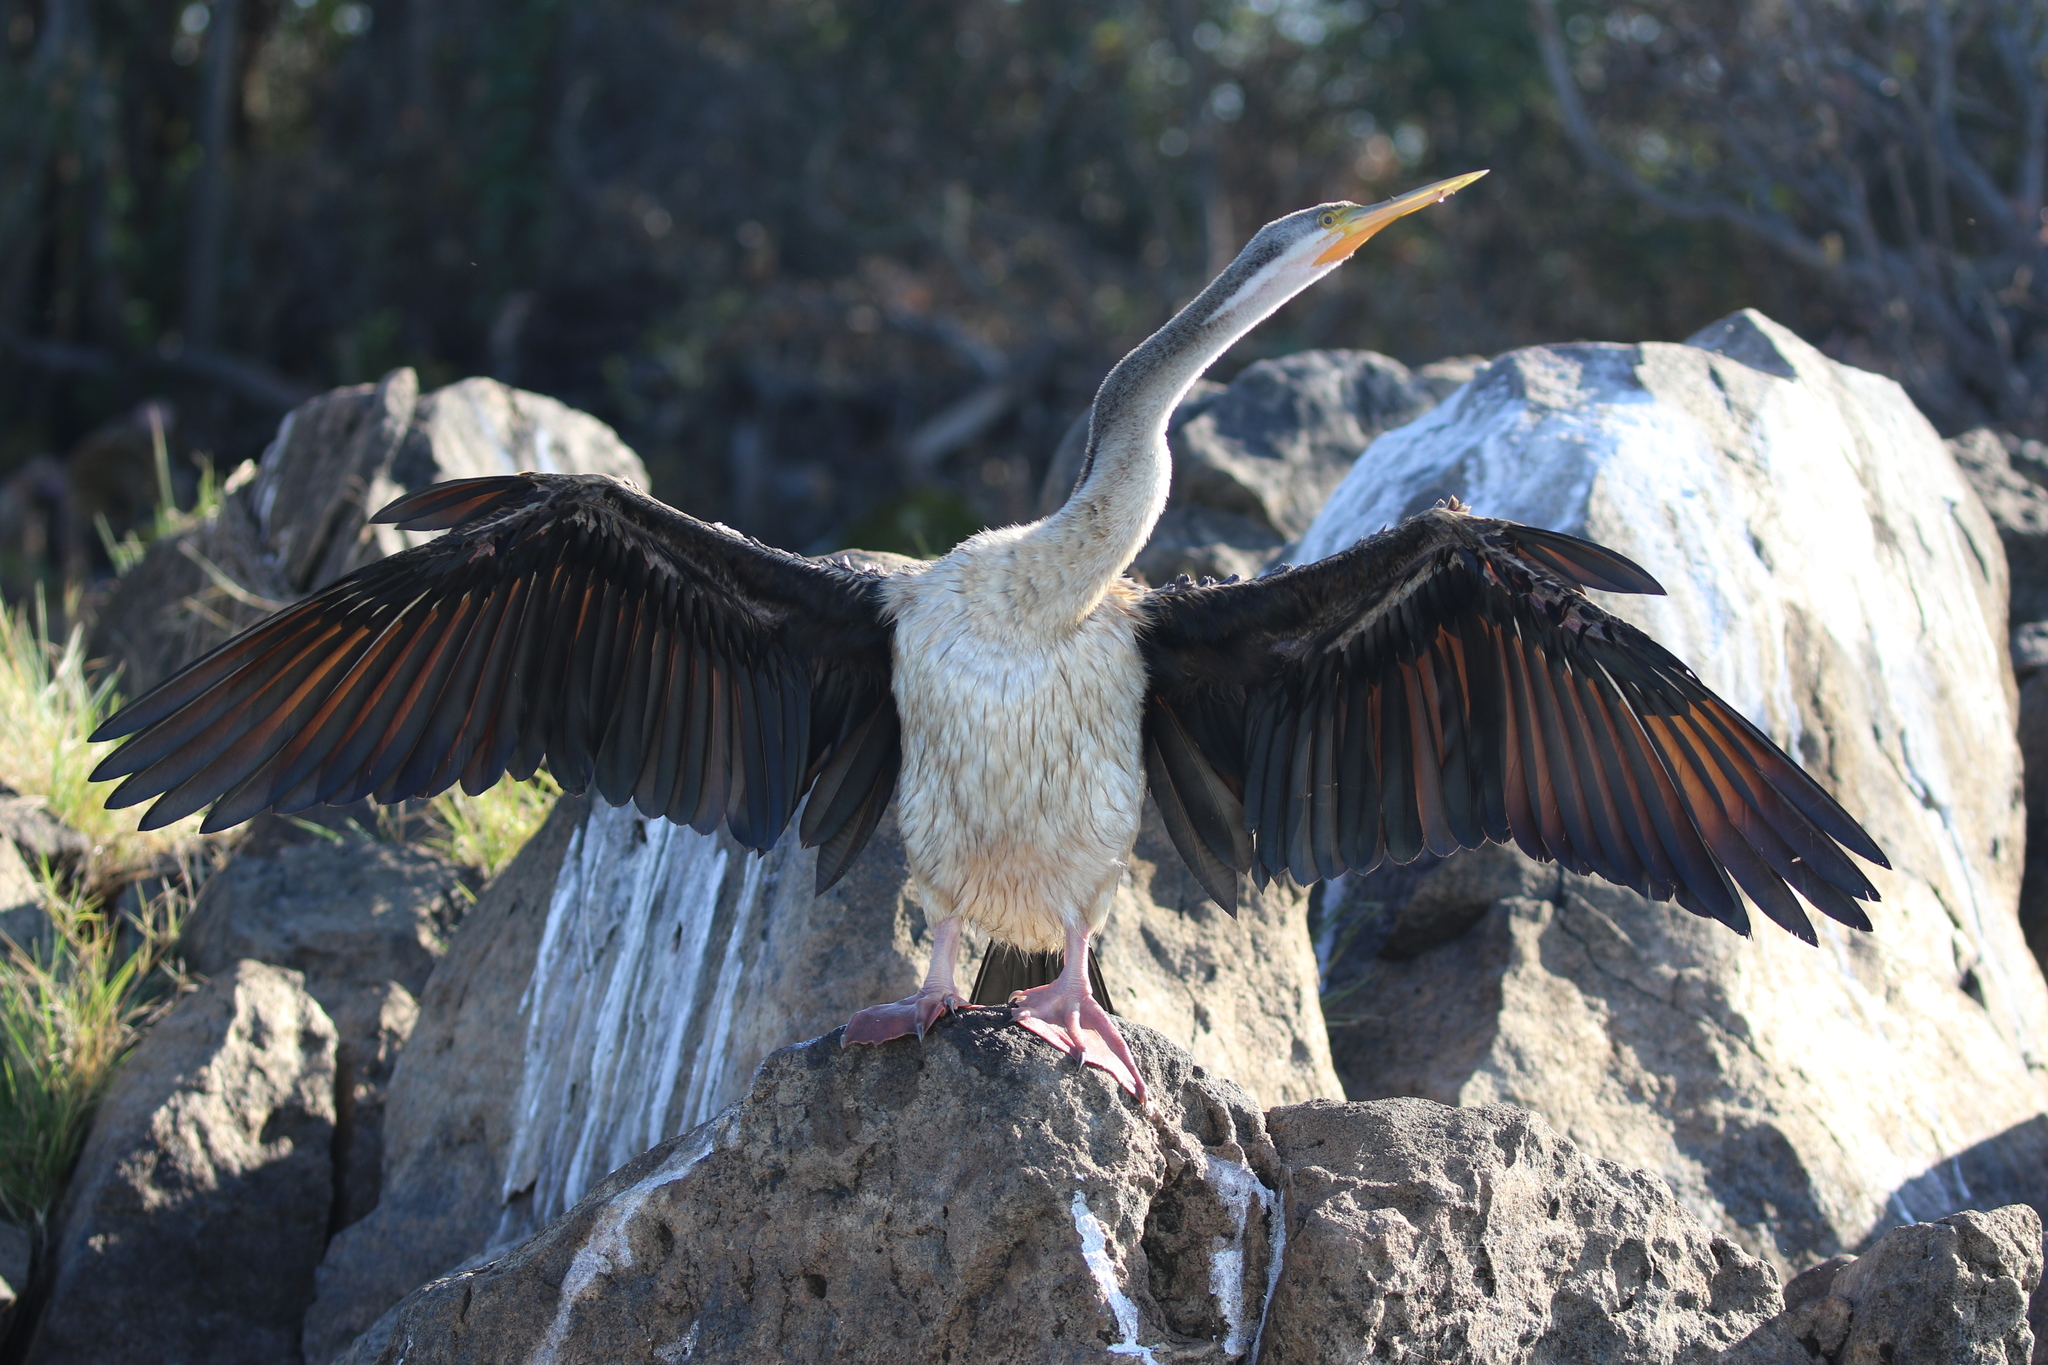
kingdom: Animalia
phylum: Chordata
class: Aves
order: Suliformes
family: Anhingidae
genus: Anhinga
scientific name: Anhinga novaehollandiae
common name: Australasian darter
